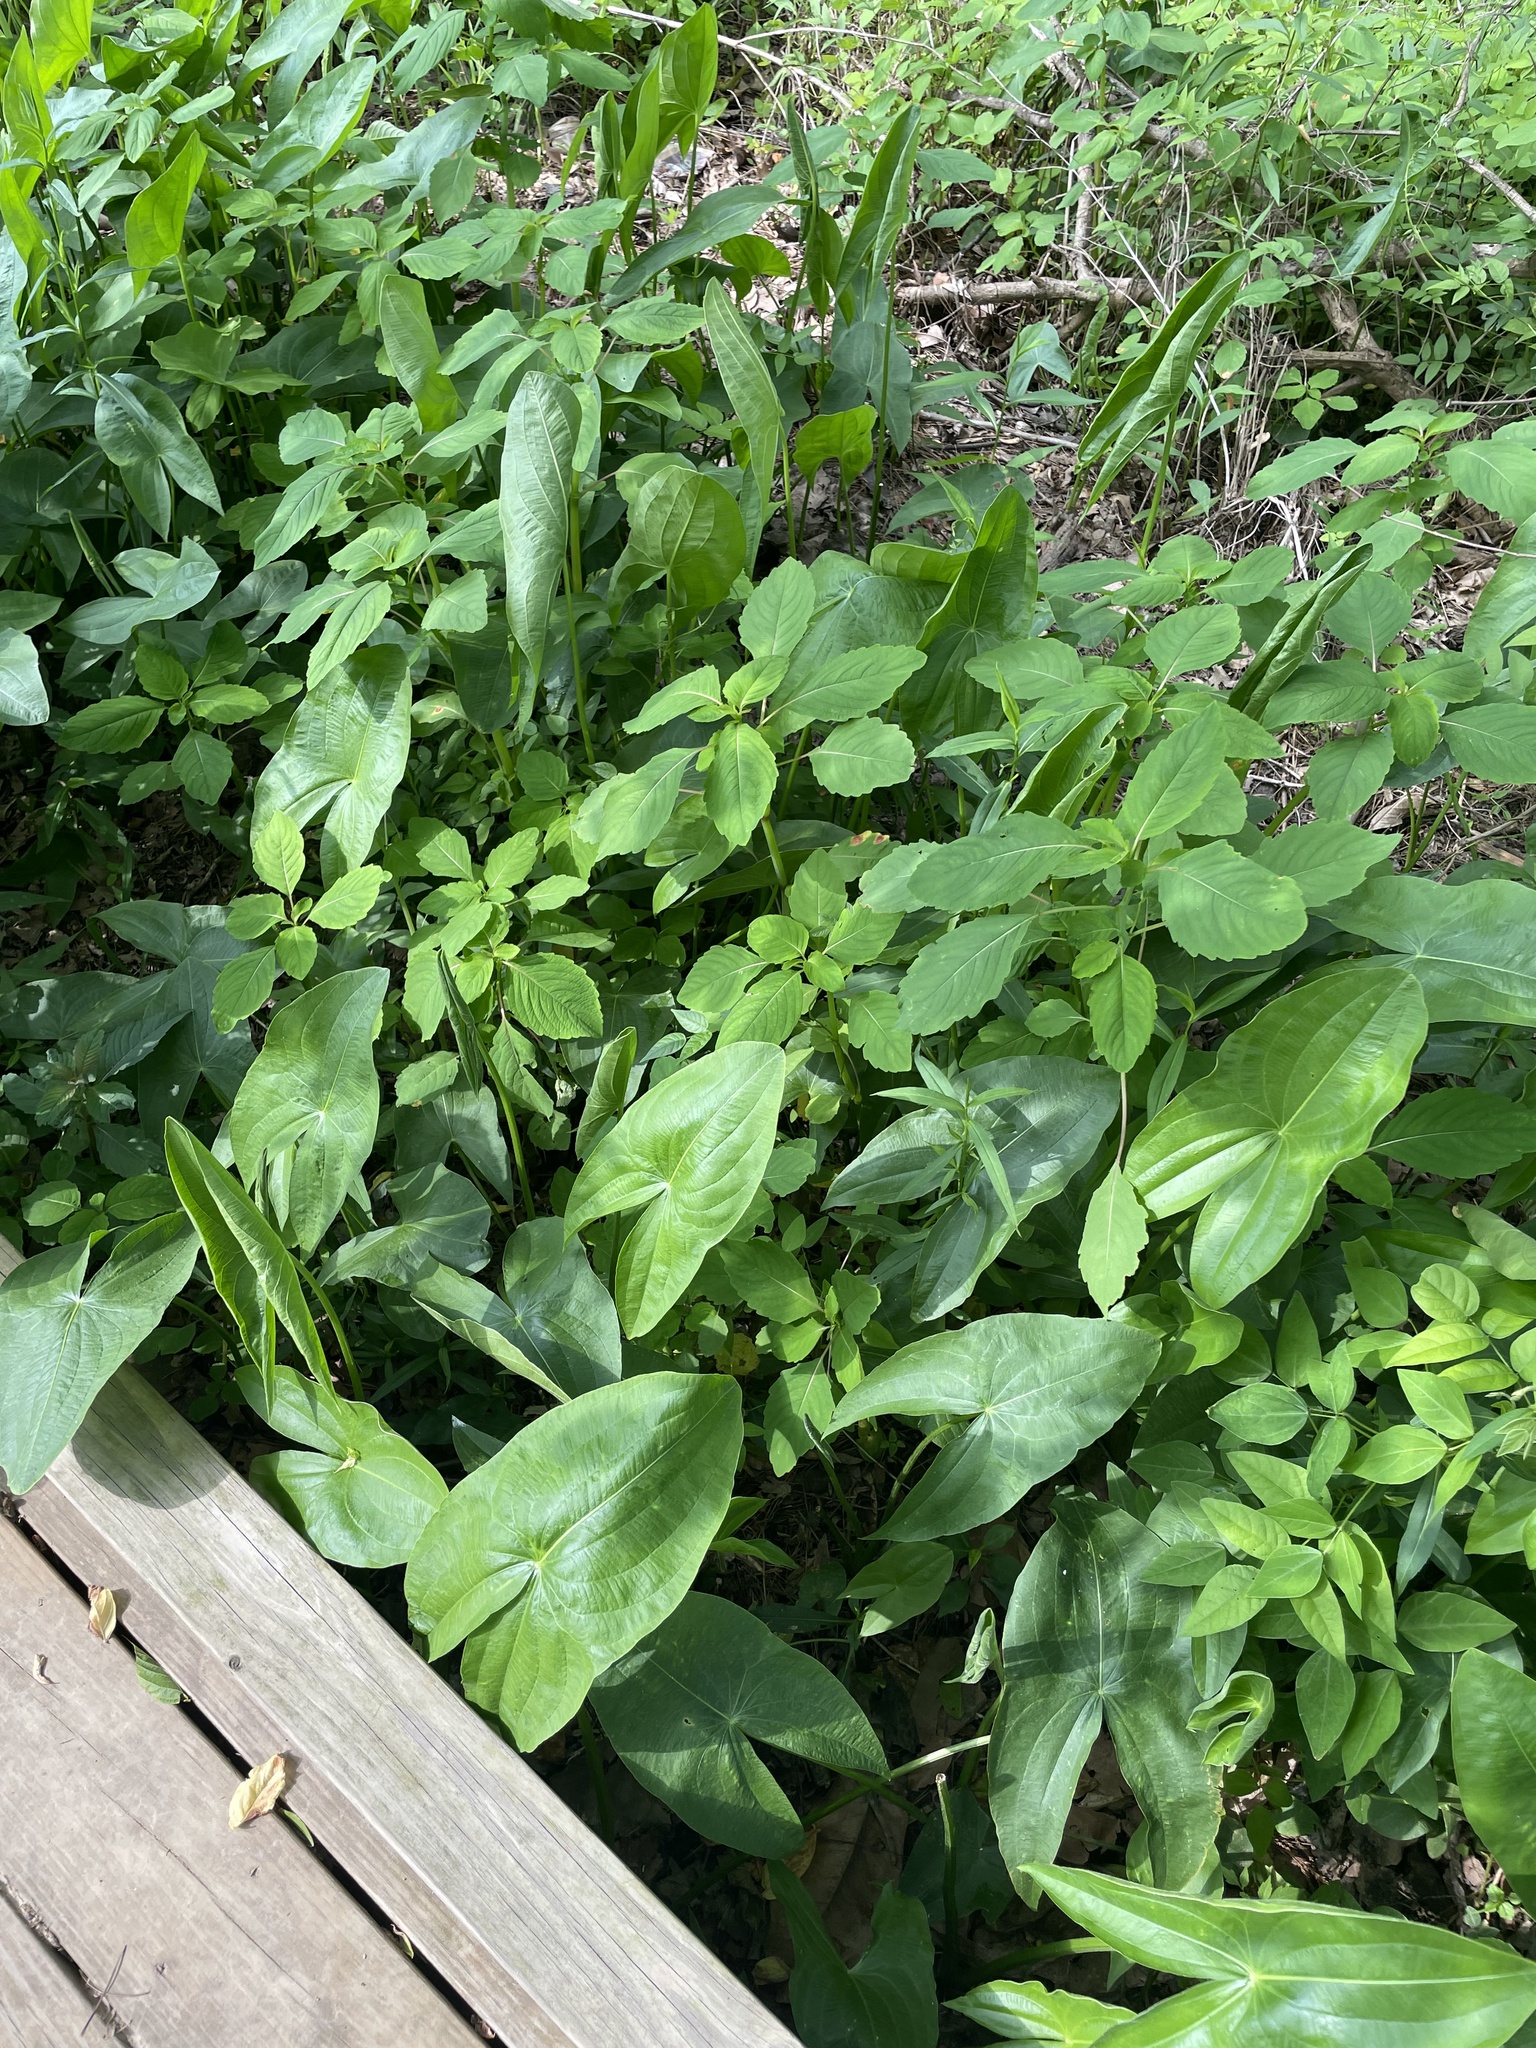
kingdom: Plantae
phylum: Tracheophyta
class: Liliopsida
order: Alismatales
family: Alismataceae
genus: Sagittaria
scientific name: Sagittaria latifolia
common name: Duck-potato
